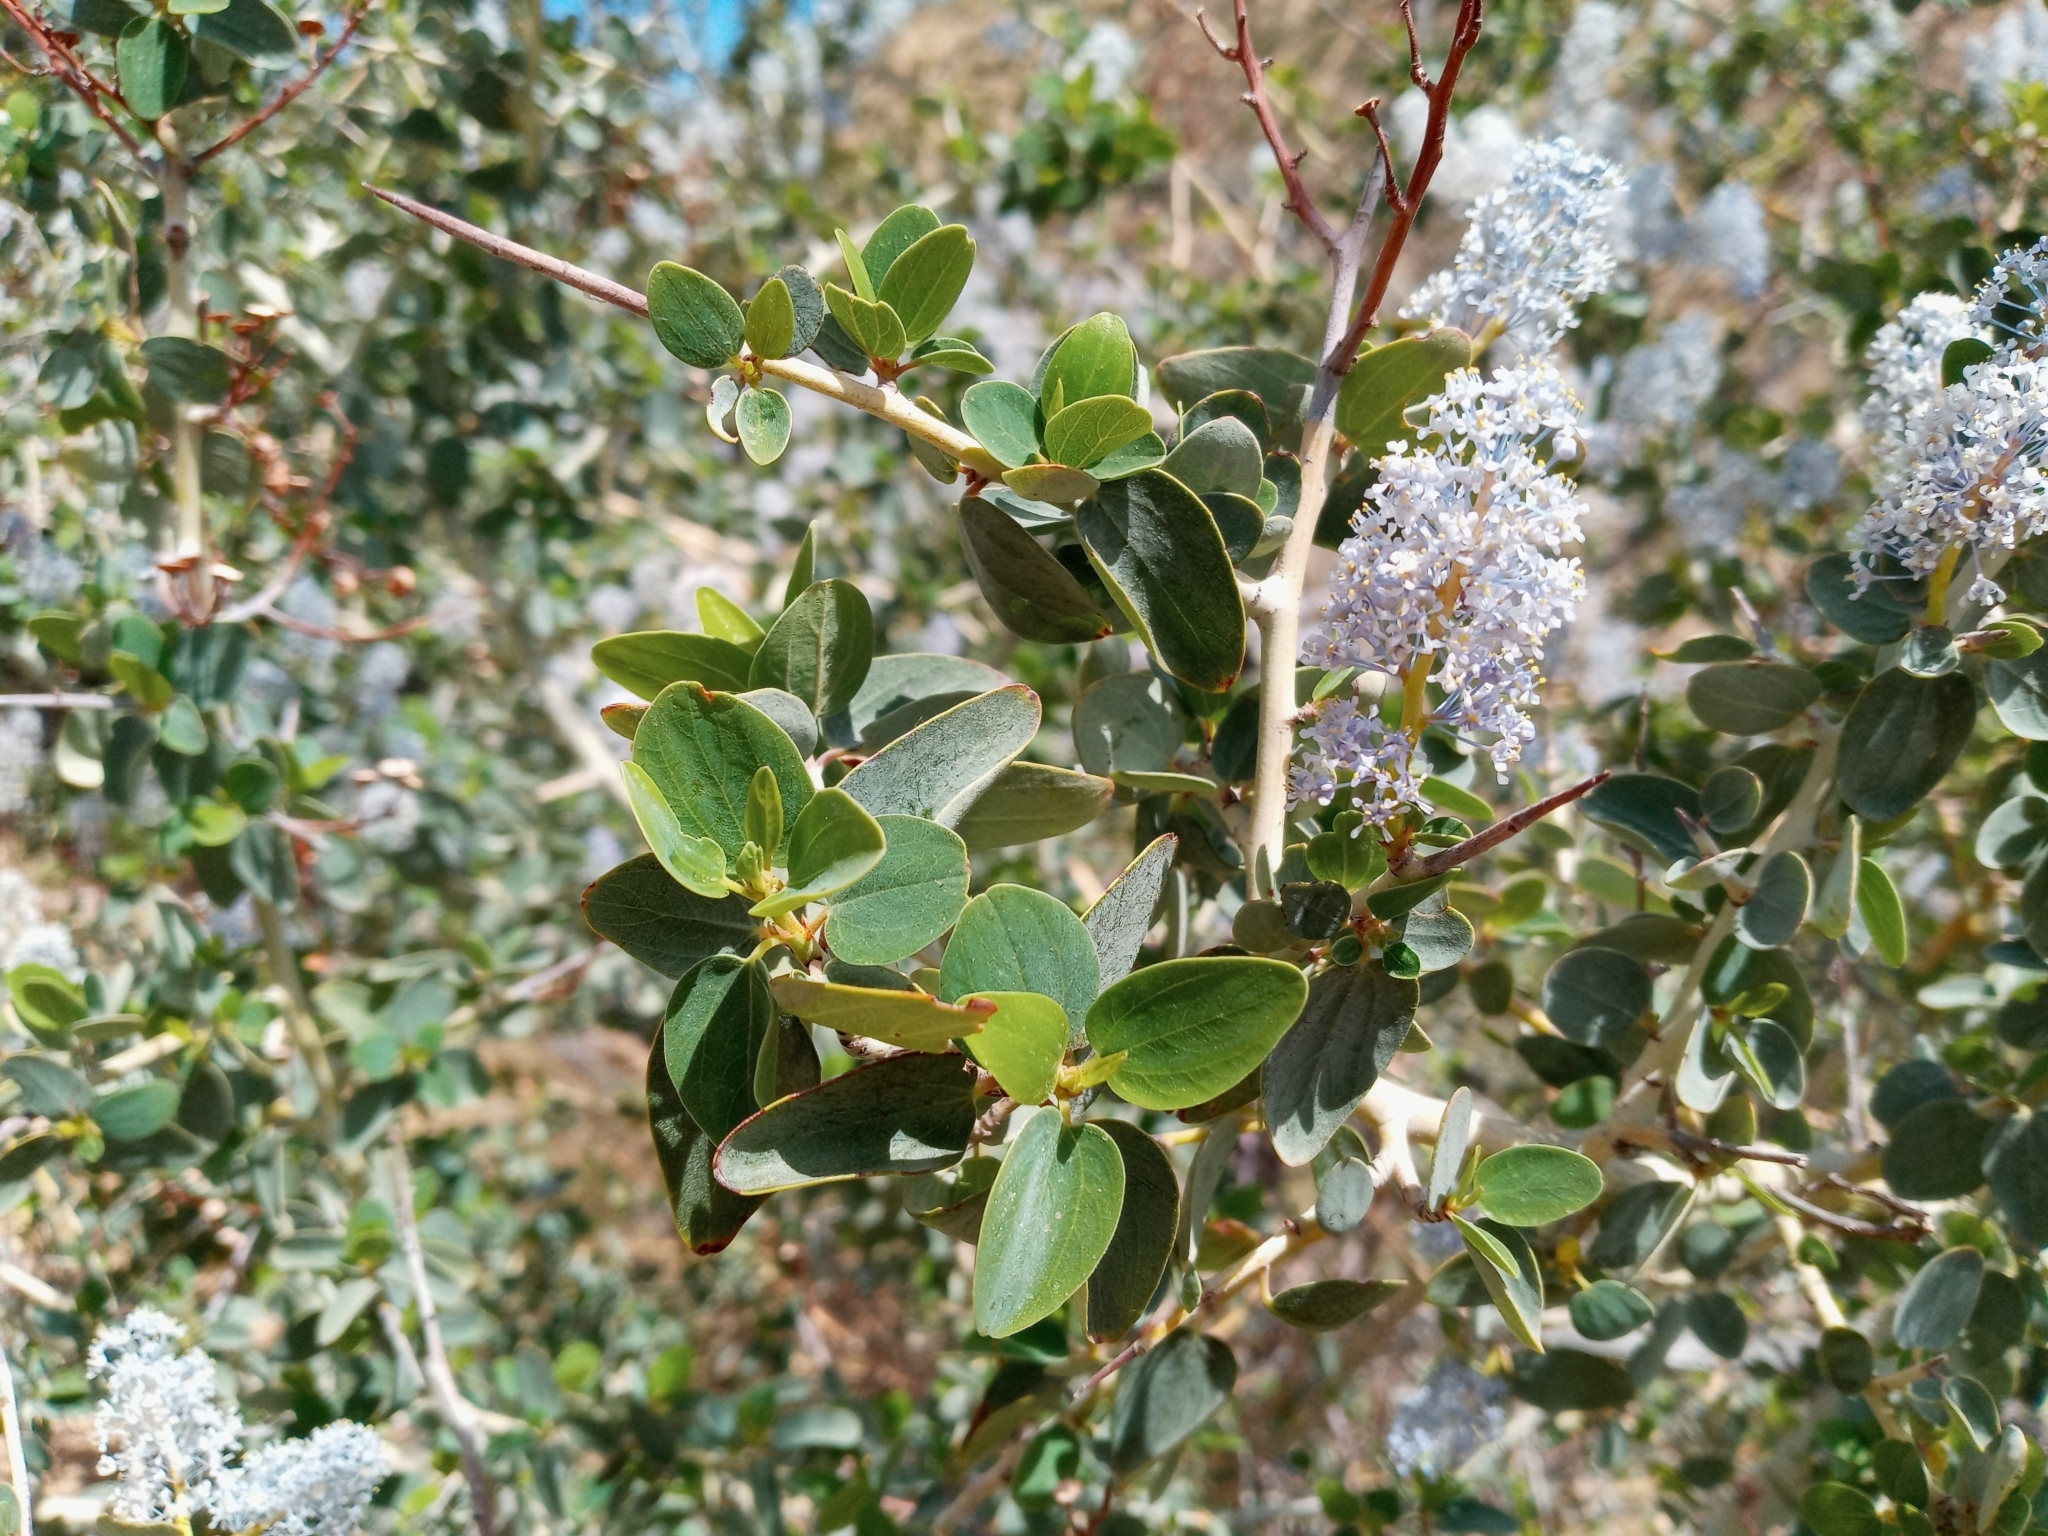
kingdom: Plantae
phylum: Tracheophyta
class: Magnoliopsida
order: Rosales
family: Rhamnaceae
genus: Ceanothus
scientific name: Ceanothus leucodermis
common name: Chaparral whitethorn
